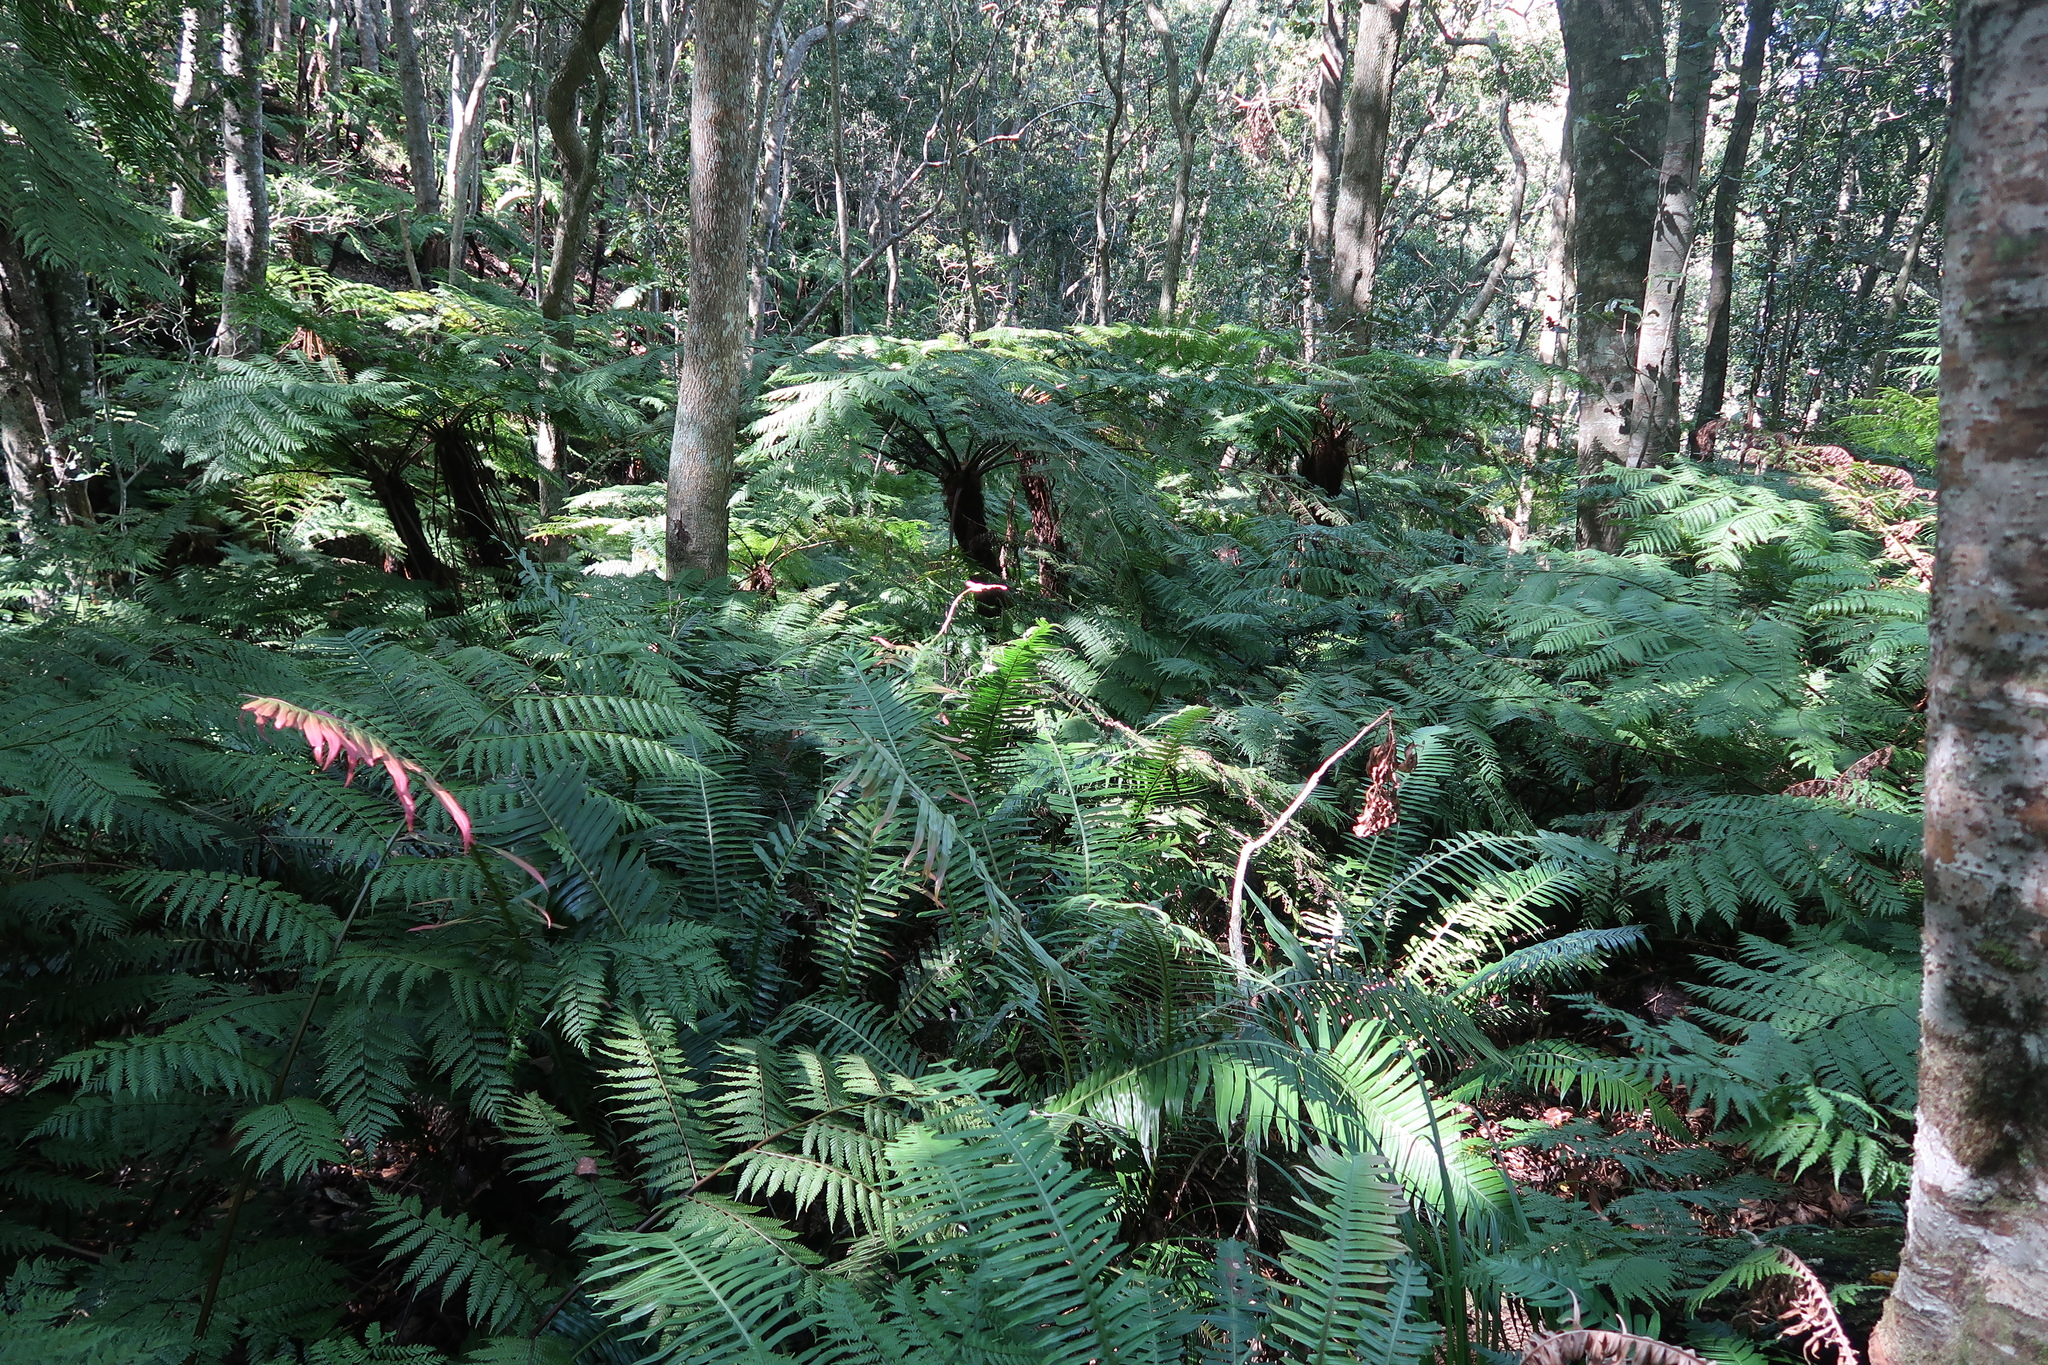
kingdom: Plantae
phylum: Tracheophyta
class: Polypodiopsida
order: Polypodiales
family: Blechnaceae
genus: Lomaridium
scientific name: Lomaridium attenuatum
